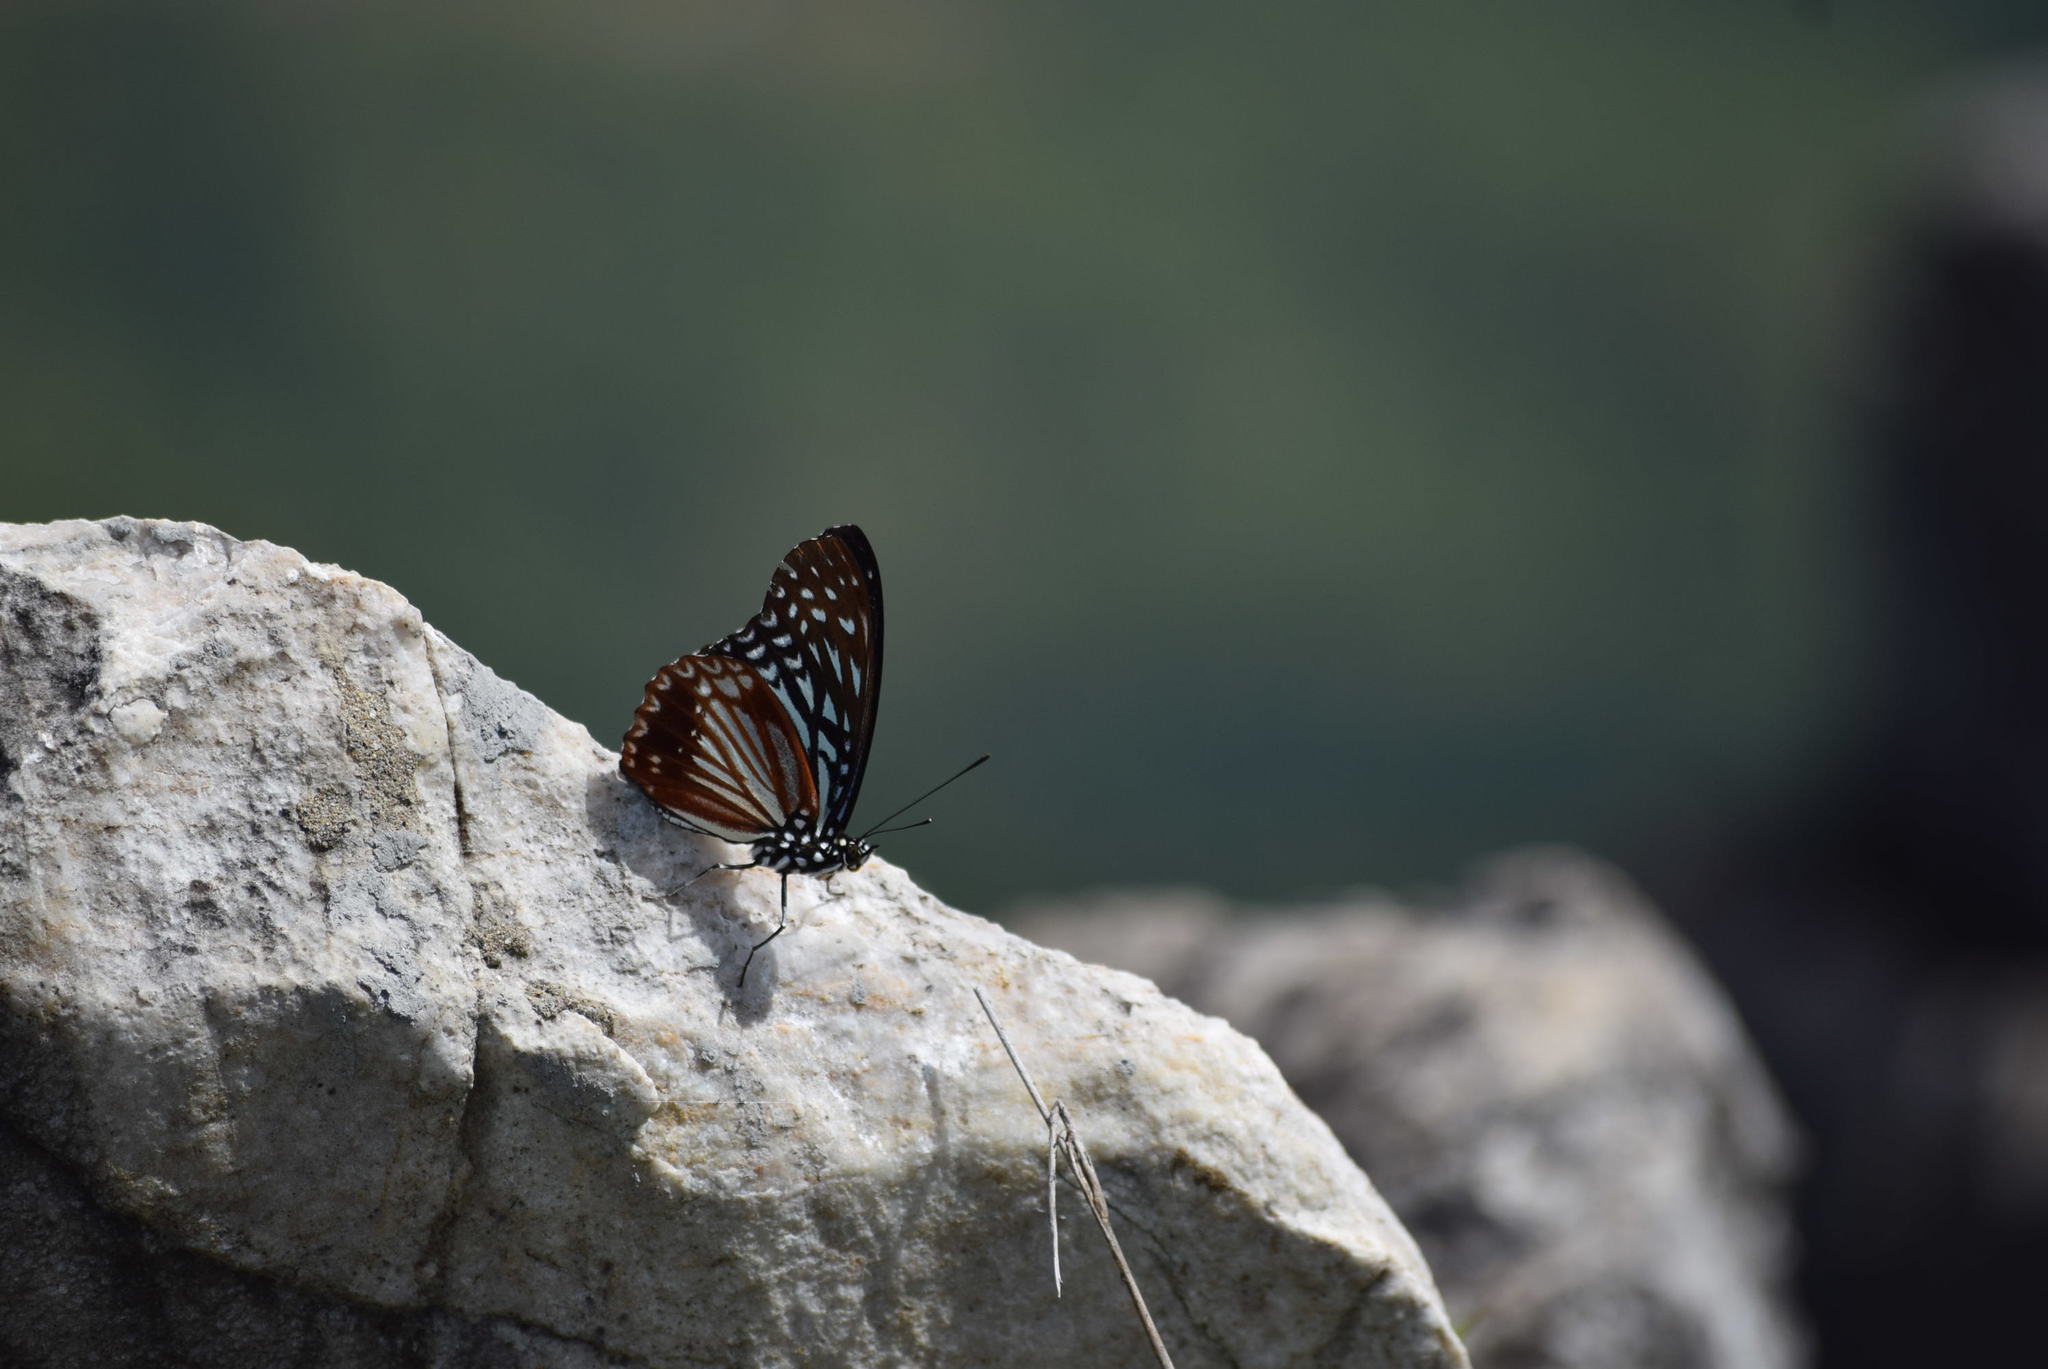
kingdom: Animalia
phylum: Arthropoda
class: Insecta
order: Lepidoptera
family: Nymphalidae
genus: Parantica
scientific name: Parantica sita
